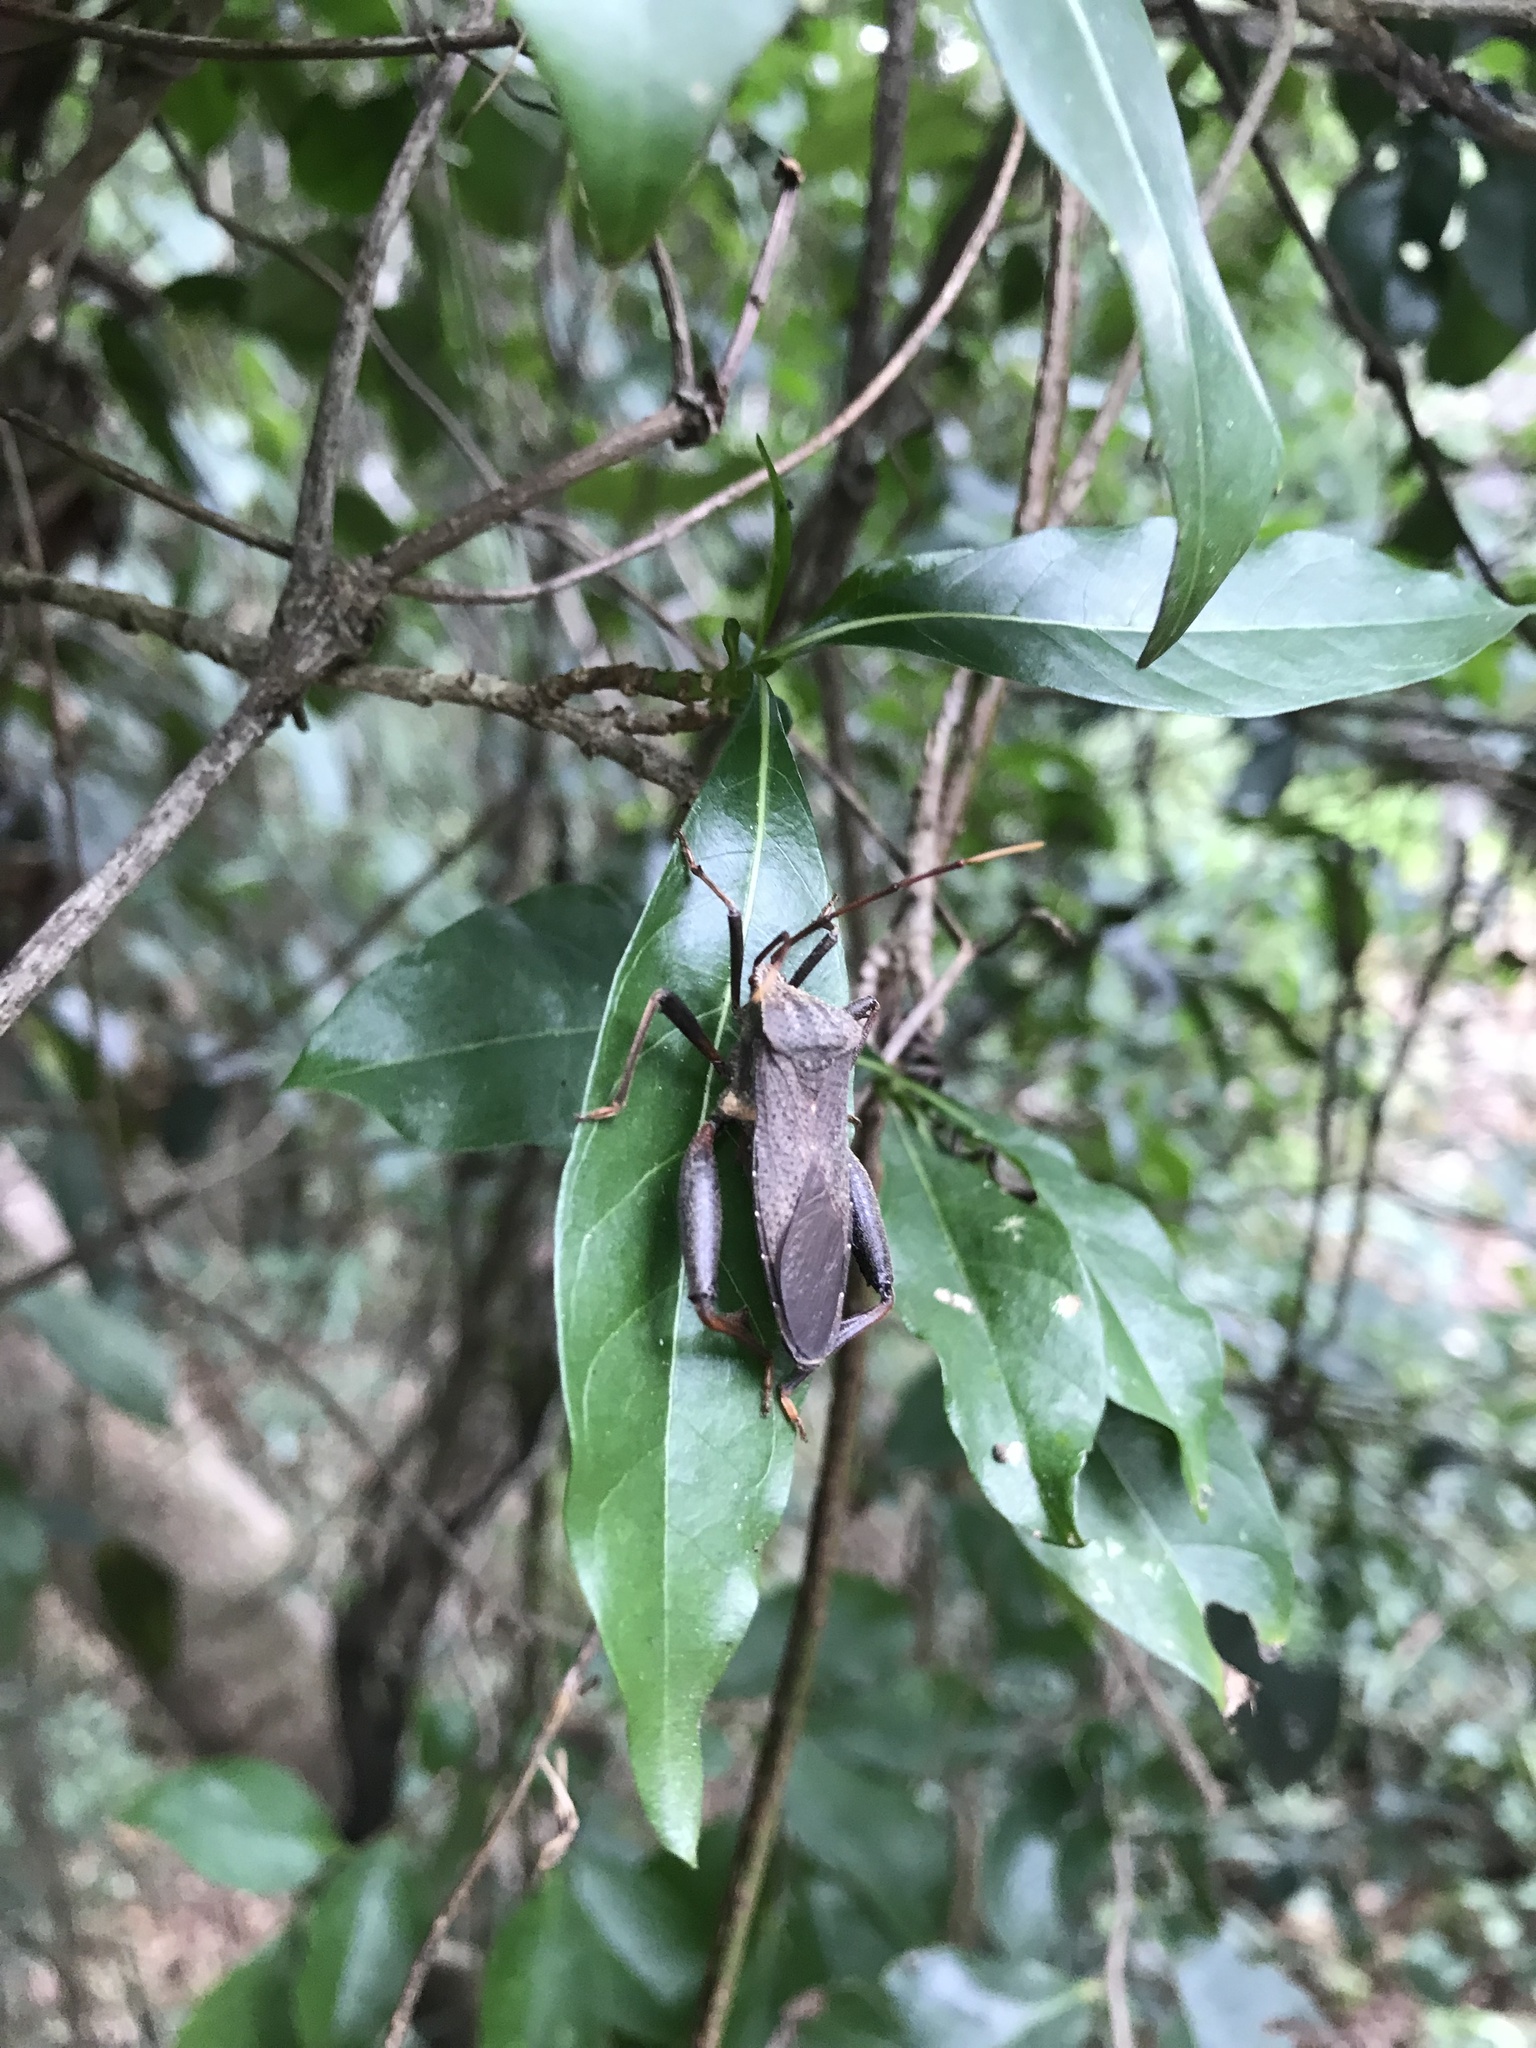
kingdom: Animalia
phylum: Arthropoda
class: Insecta
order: Hemiptera
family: Coreidae
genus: Mictis
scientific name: Mictis caja
